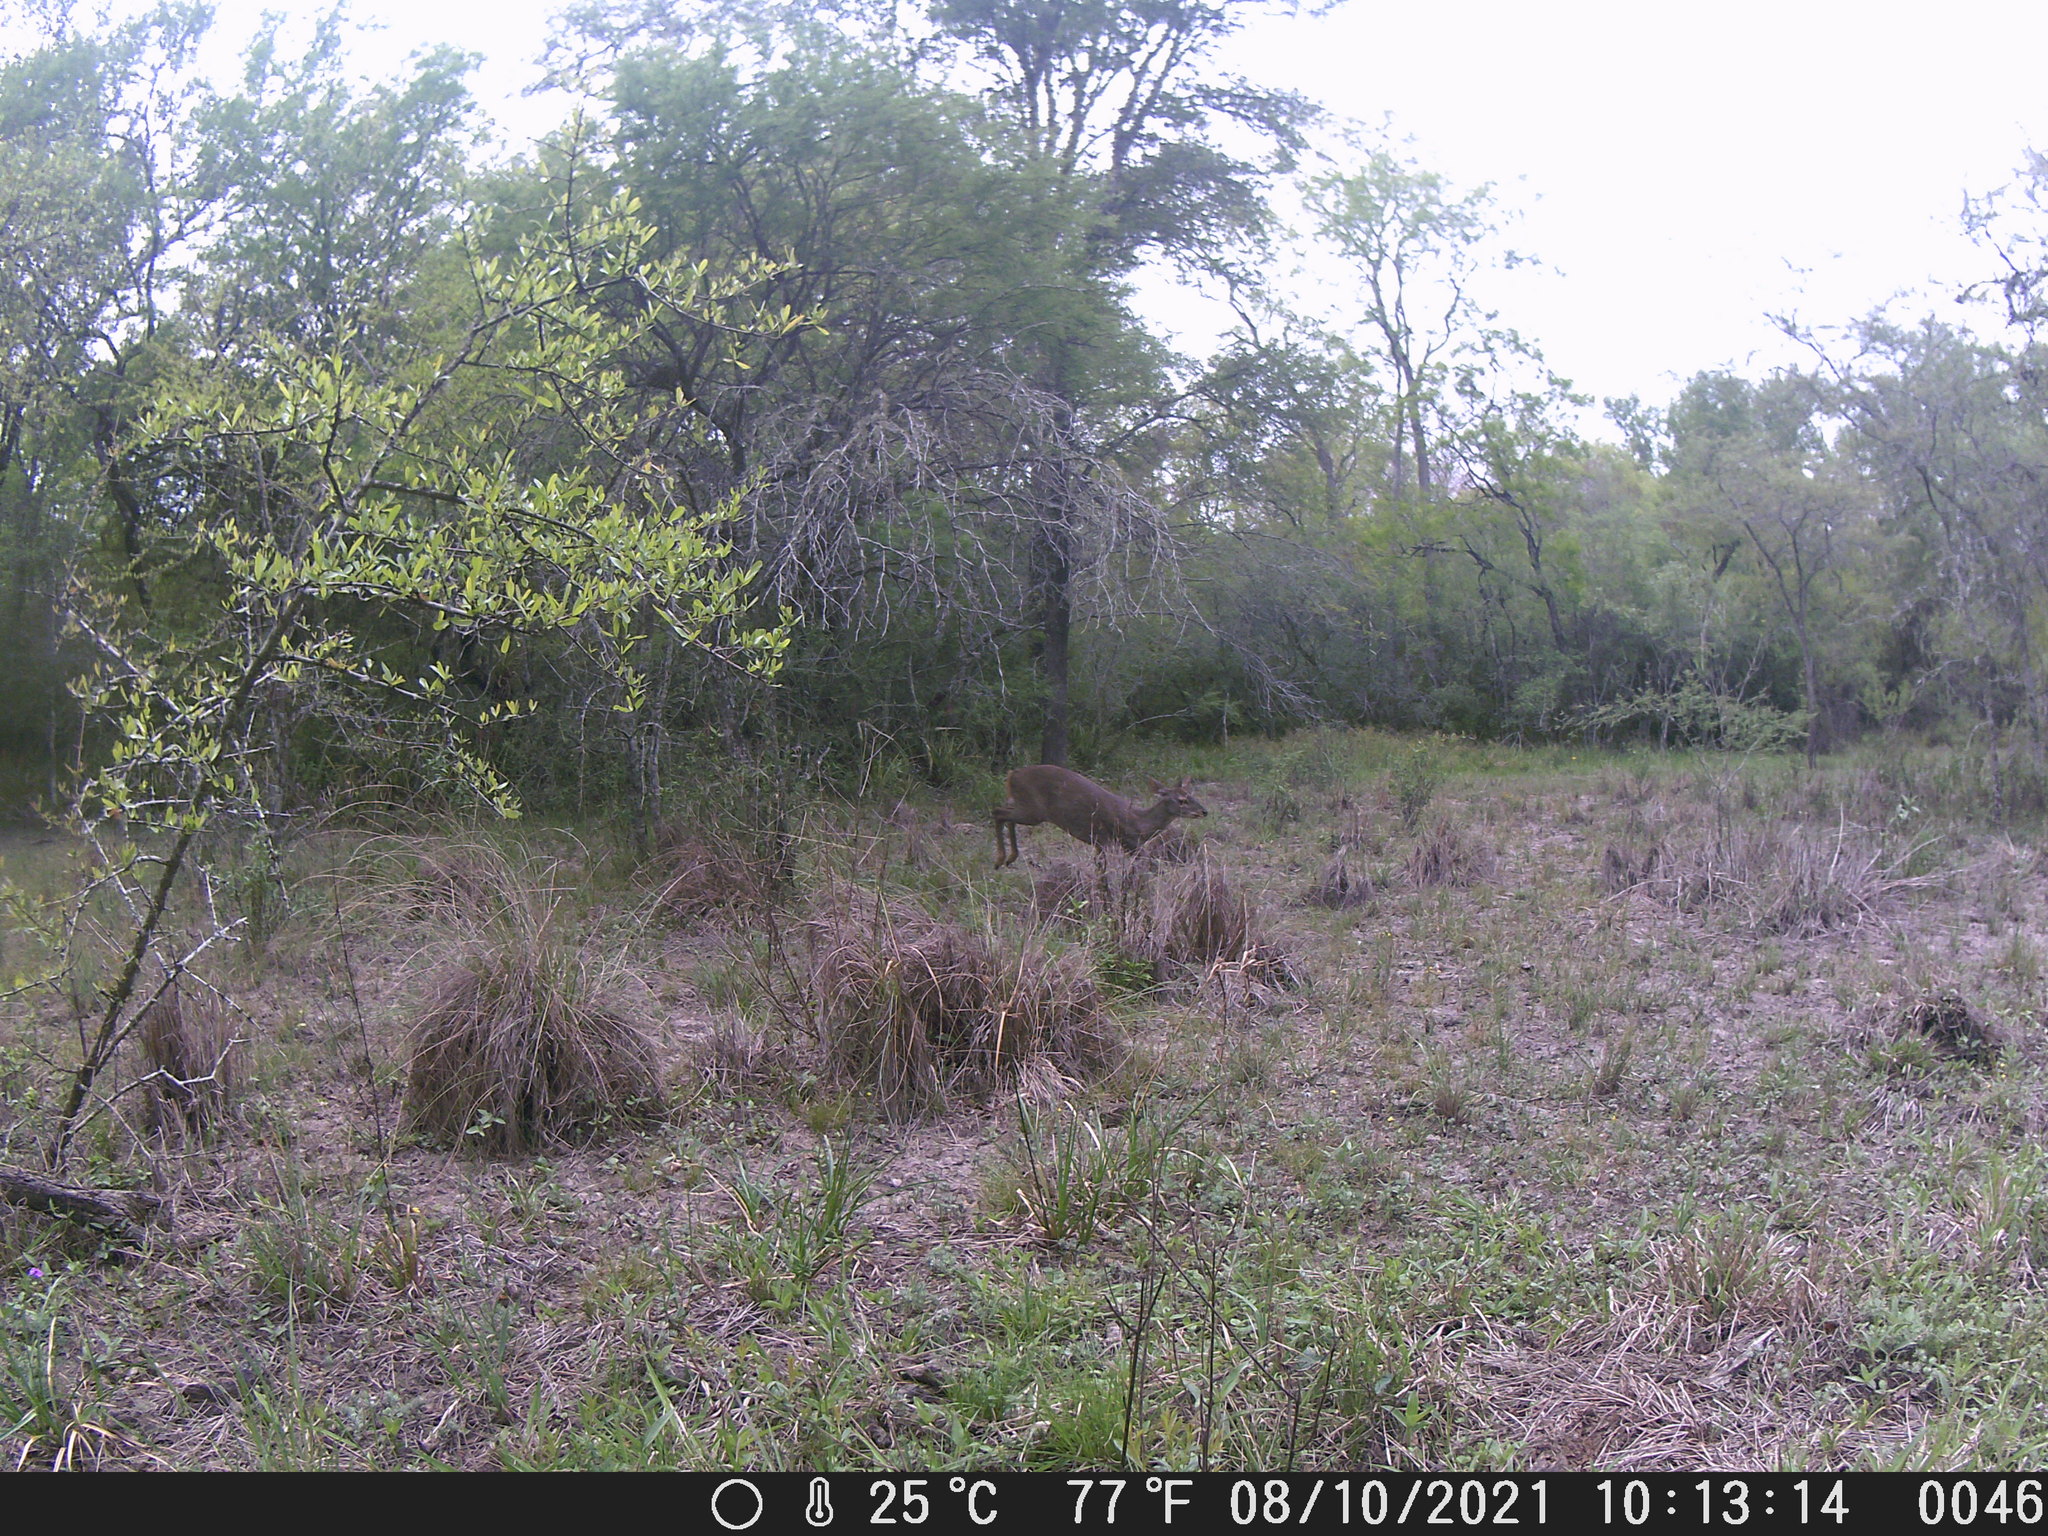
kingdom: Animalia
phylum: Chordata
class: Mammalia
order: Artiodactyla
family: Cervidae
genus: Mazama
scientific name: Mazama gouazoubira
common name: Gray brocket
